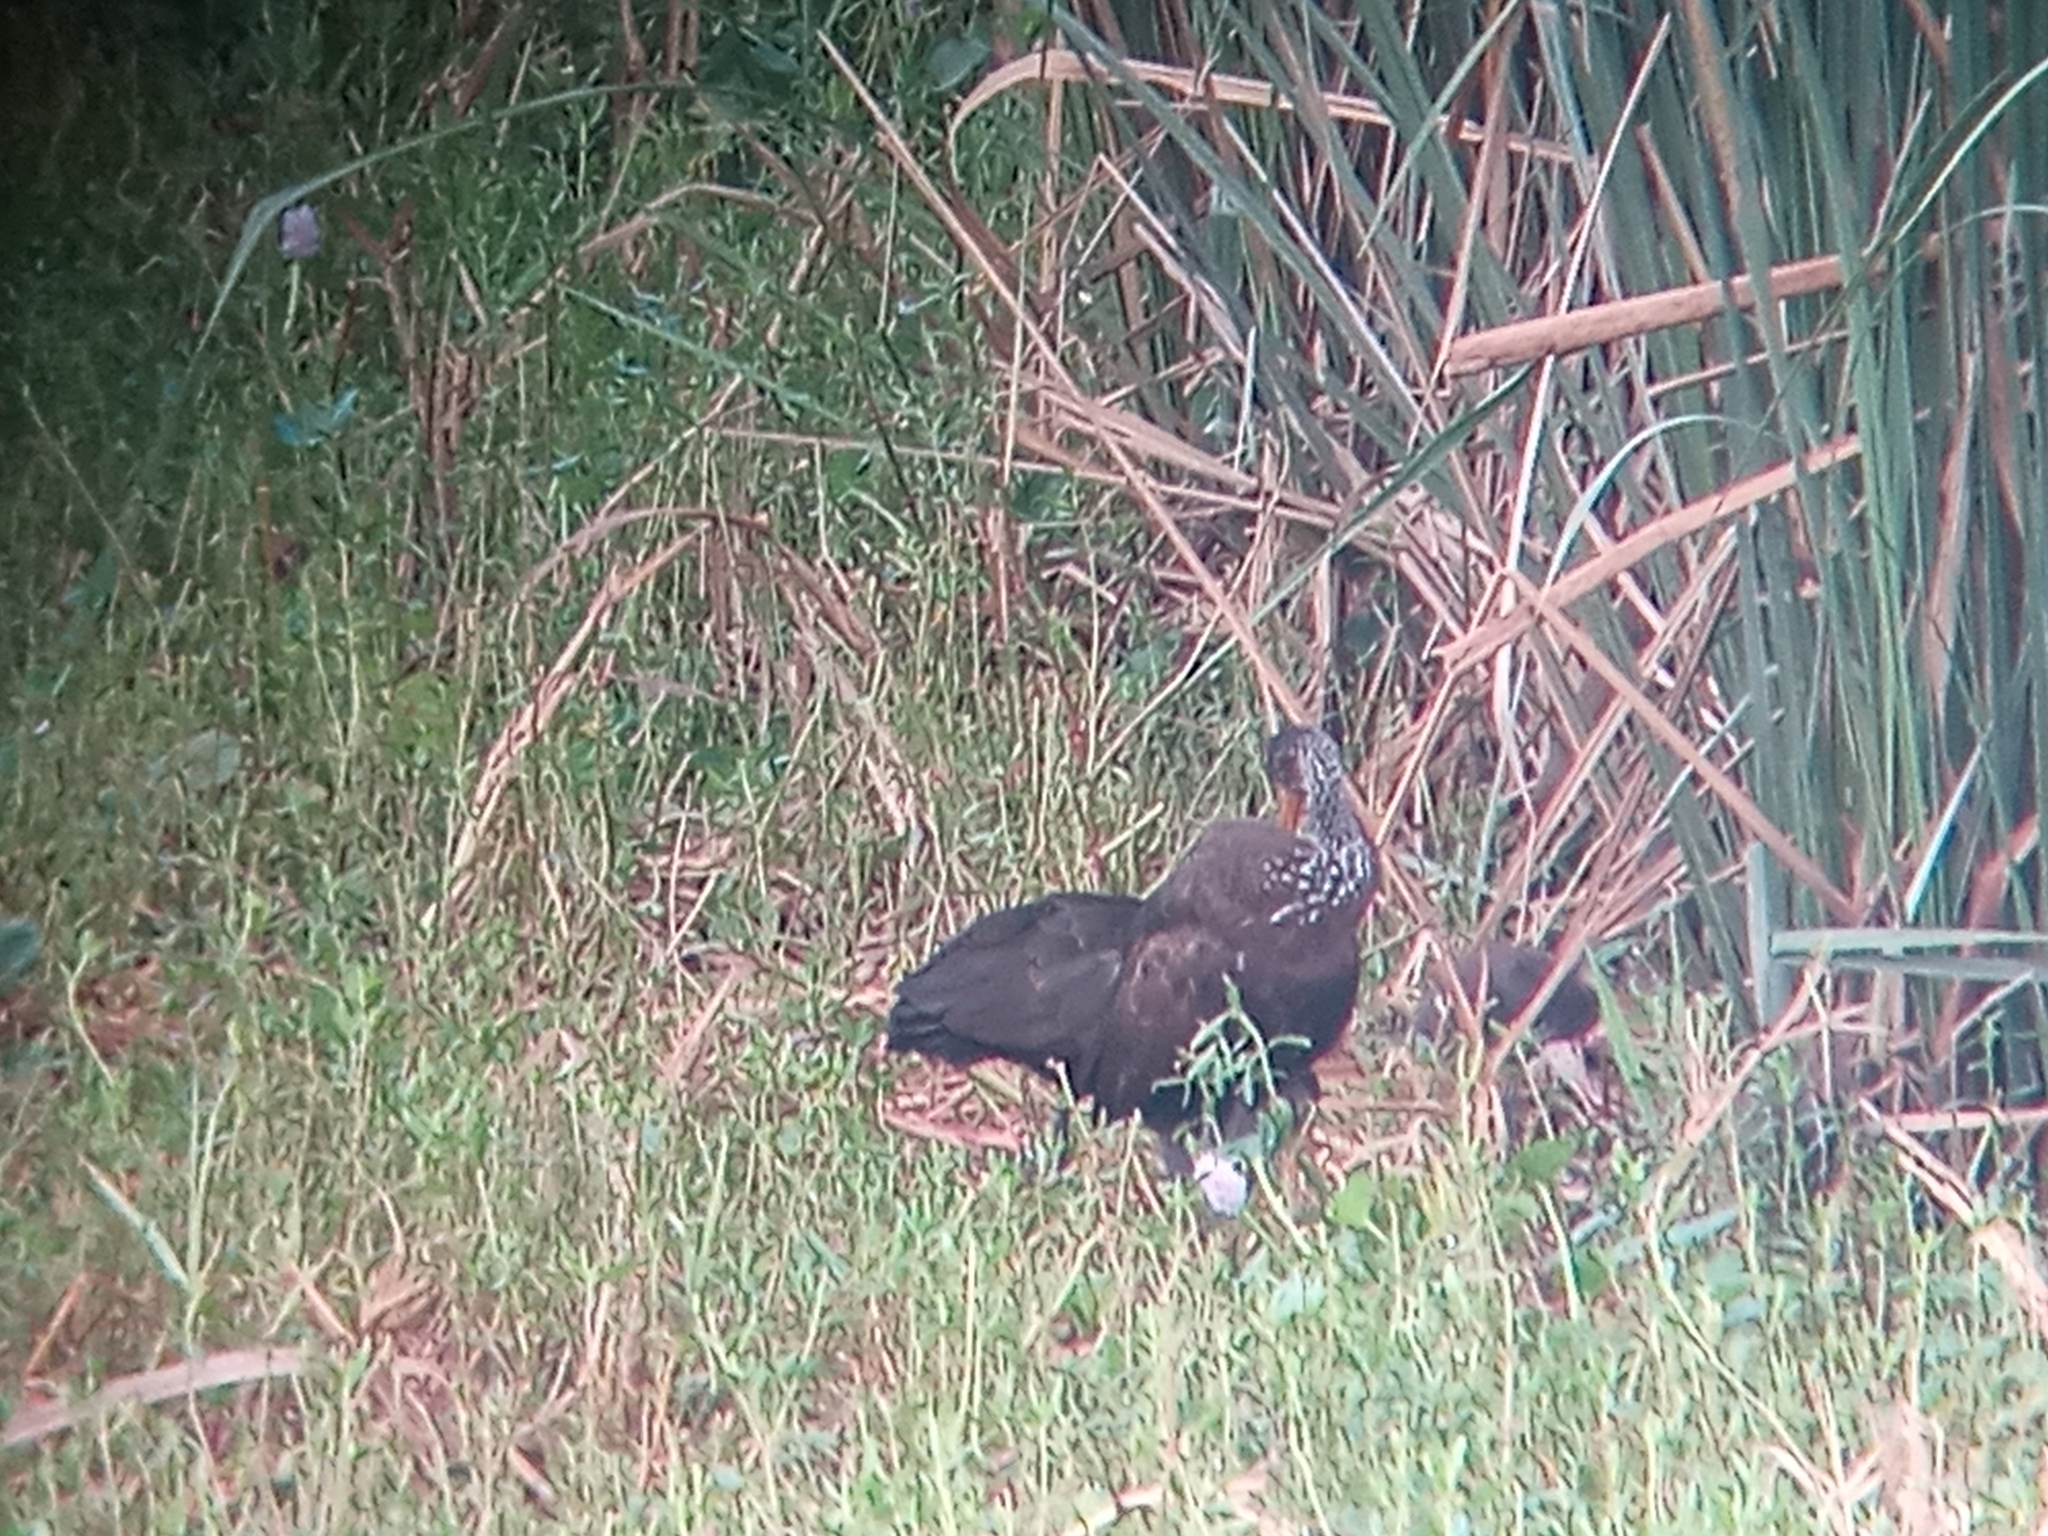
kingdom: Animalia
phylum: Chordata
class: Aves
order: Gruiformes
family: Aramidae
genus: Aramus
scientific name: Aramus guarauna
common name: Limpkin
